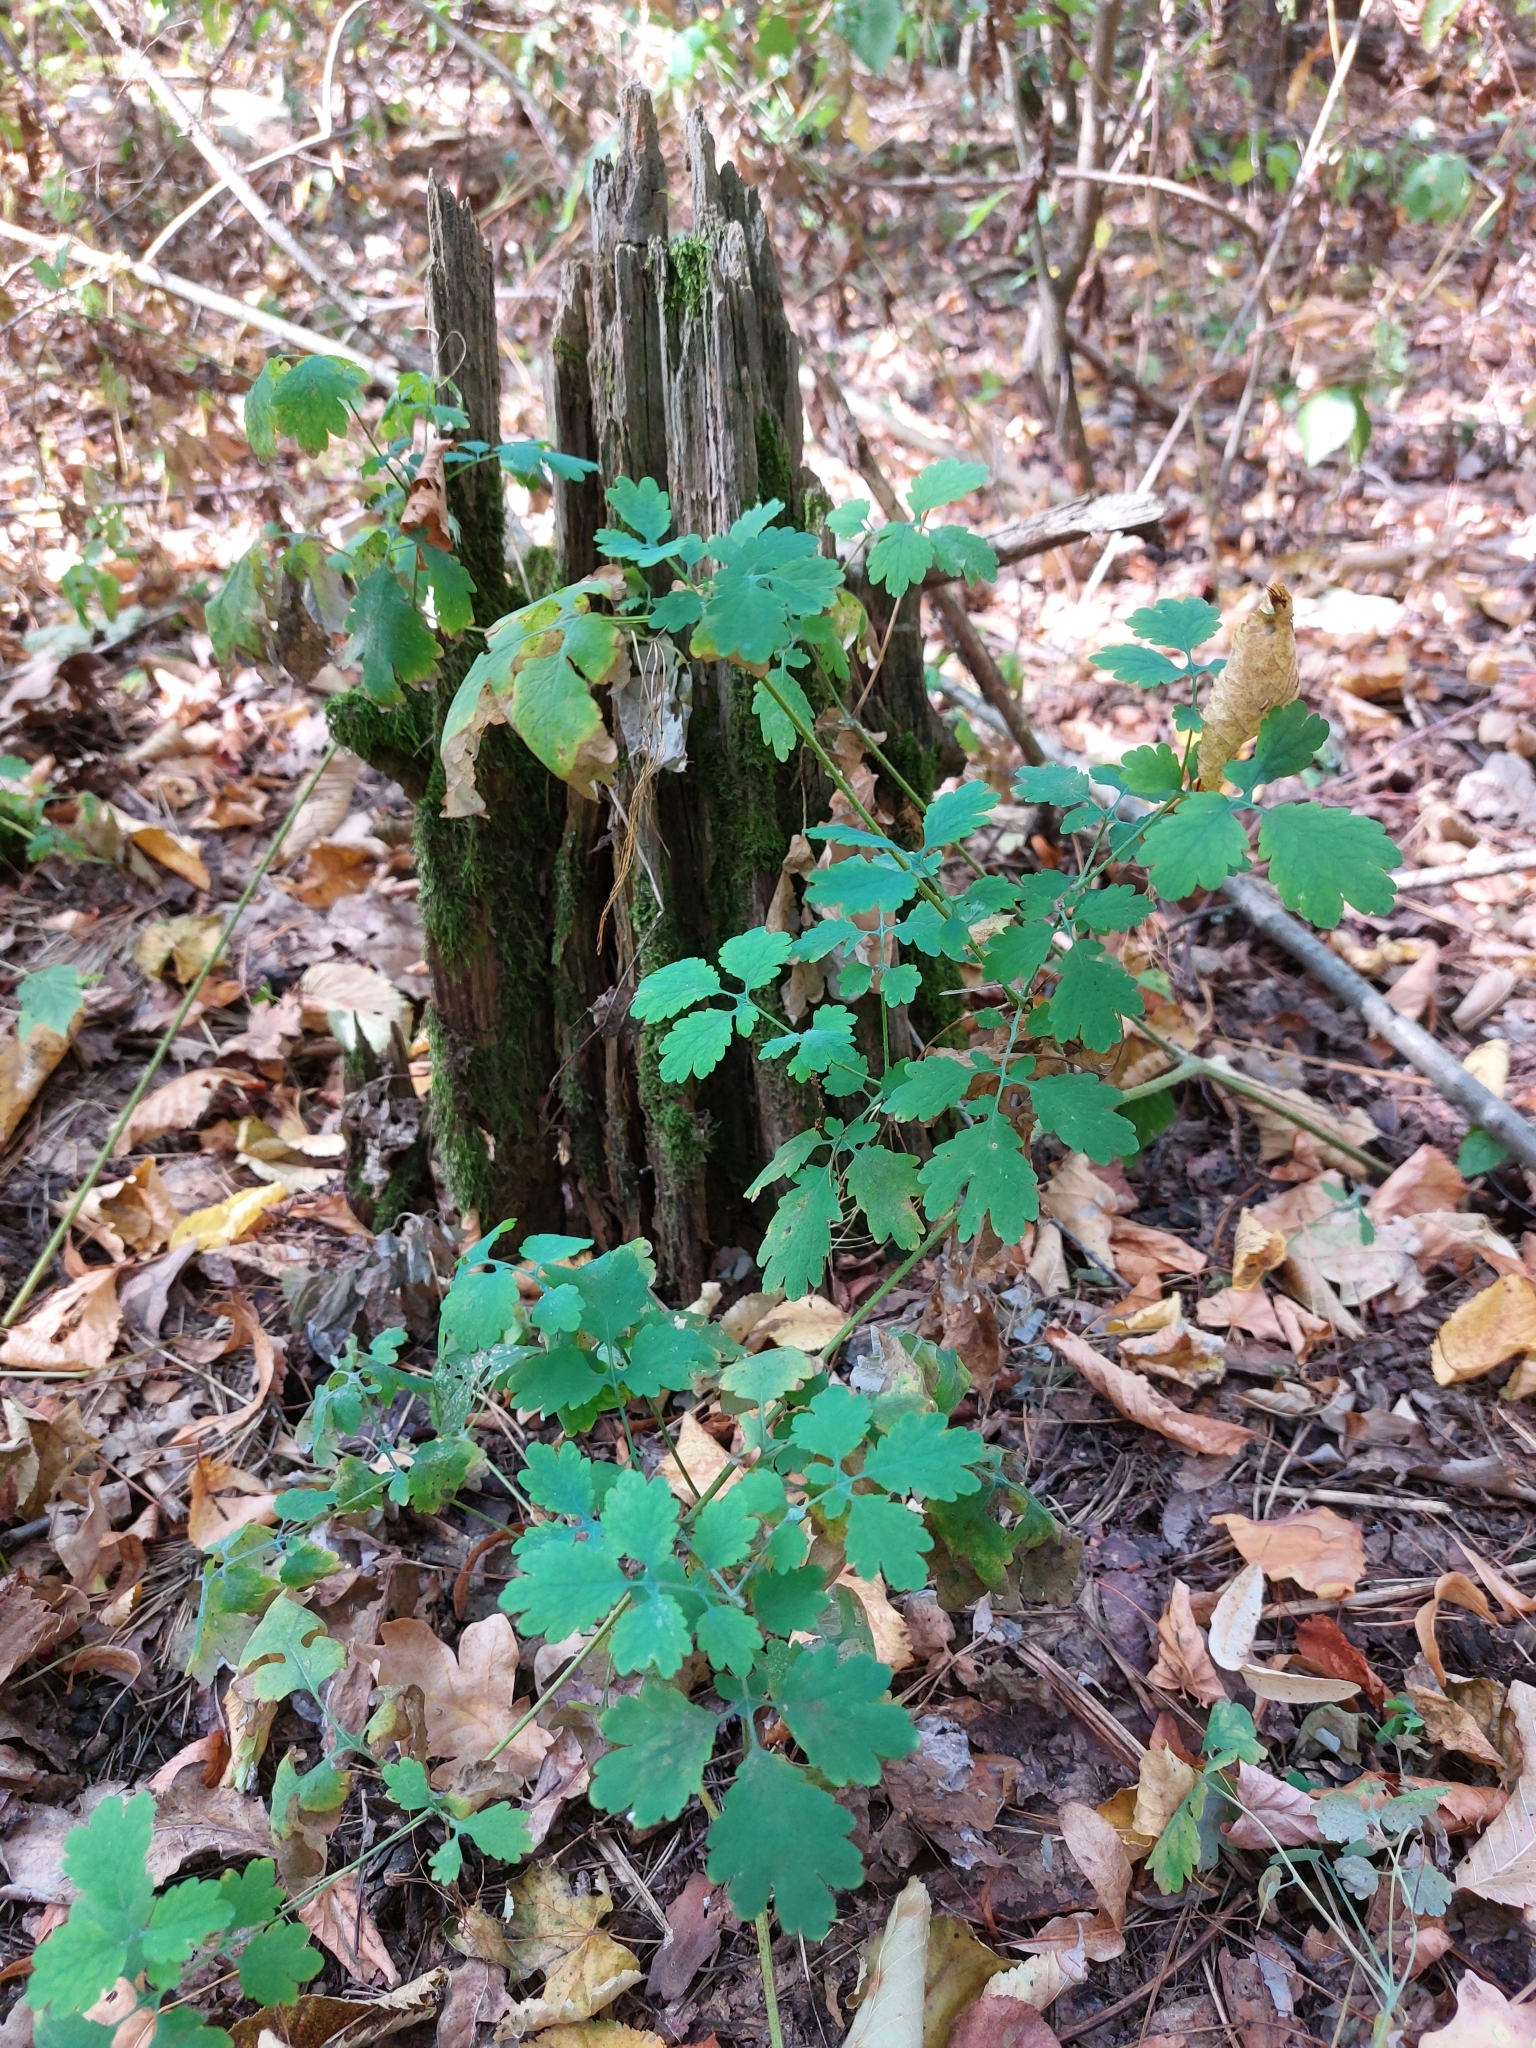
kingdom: Plantae
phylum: Tracheophyta
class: Magnoliopsida
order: Ranunculales
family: Papaveraceae
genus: Chelidonium
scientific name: Chelidonium majus
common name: Greater celandine
